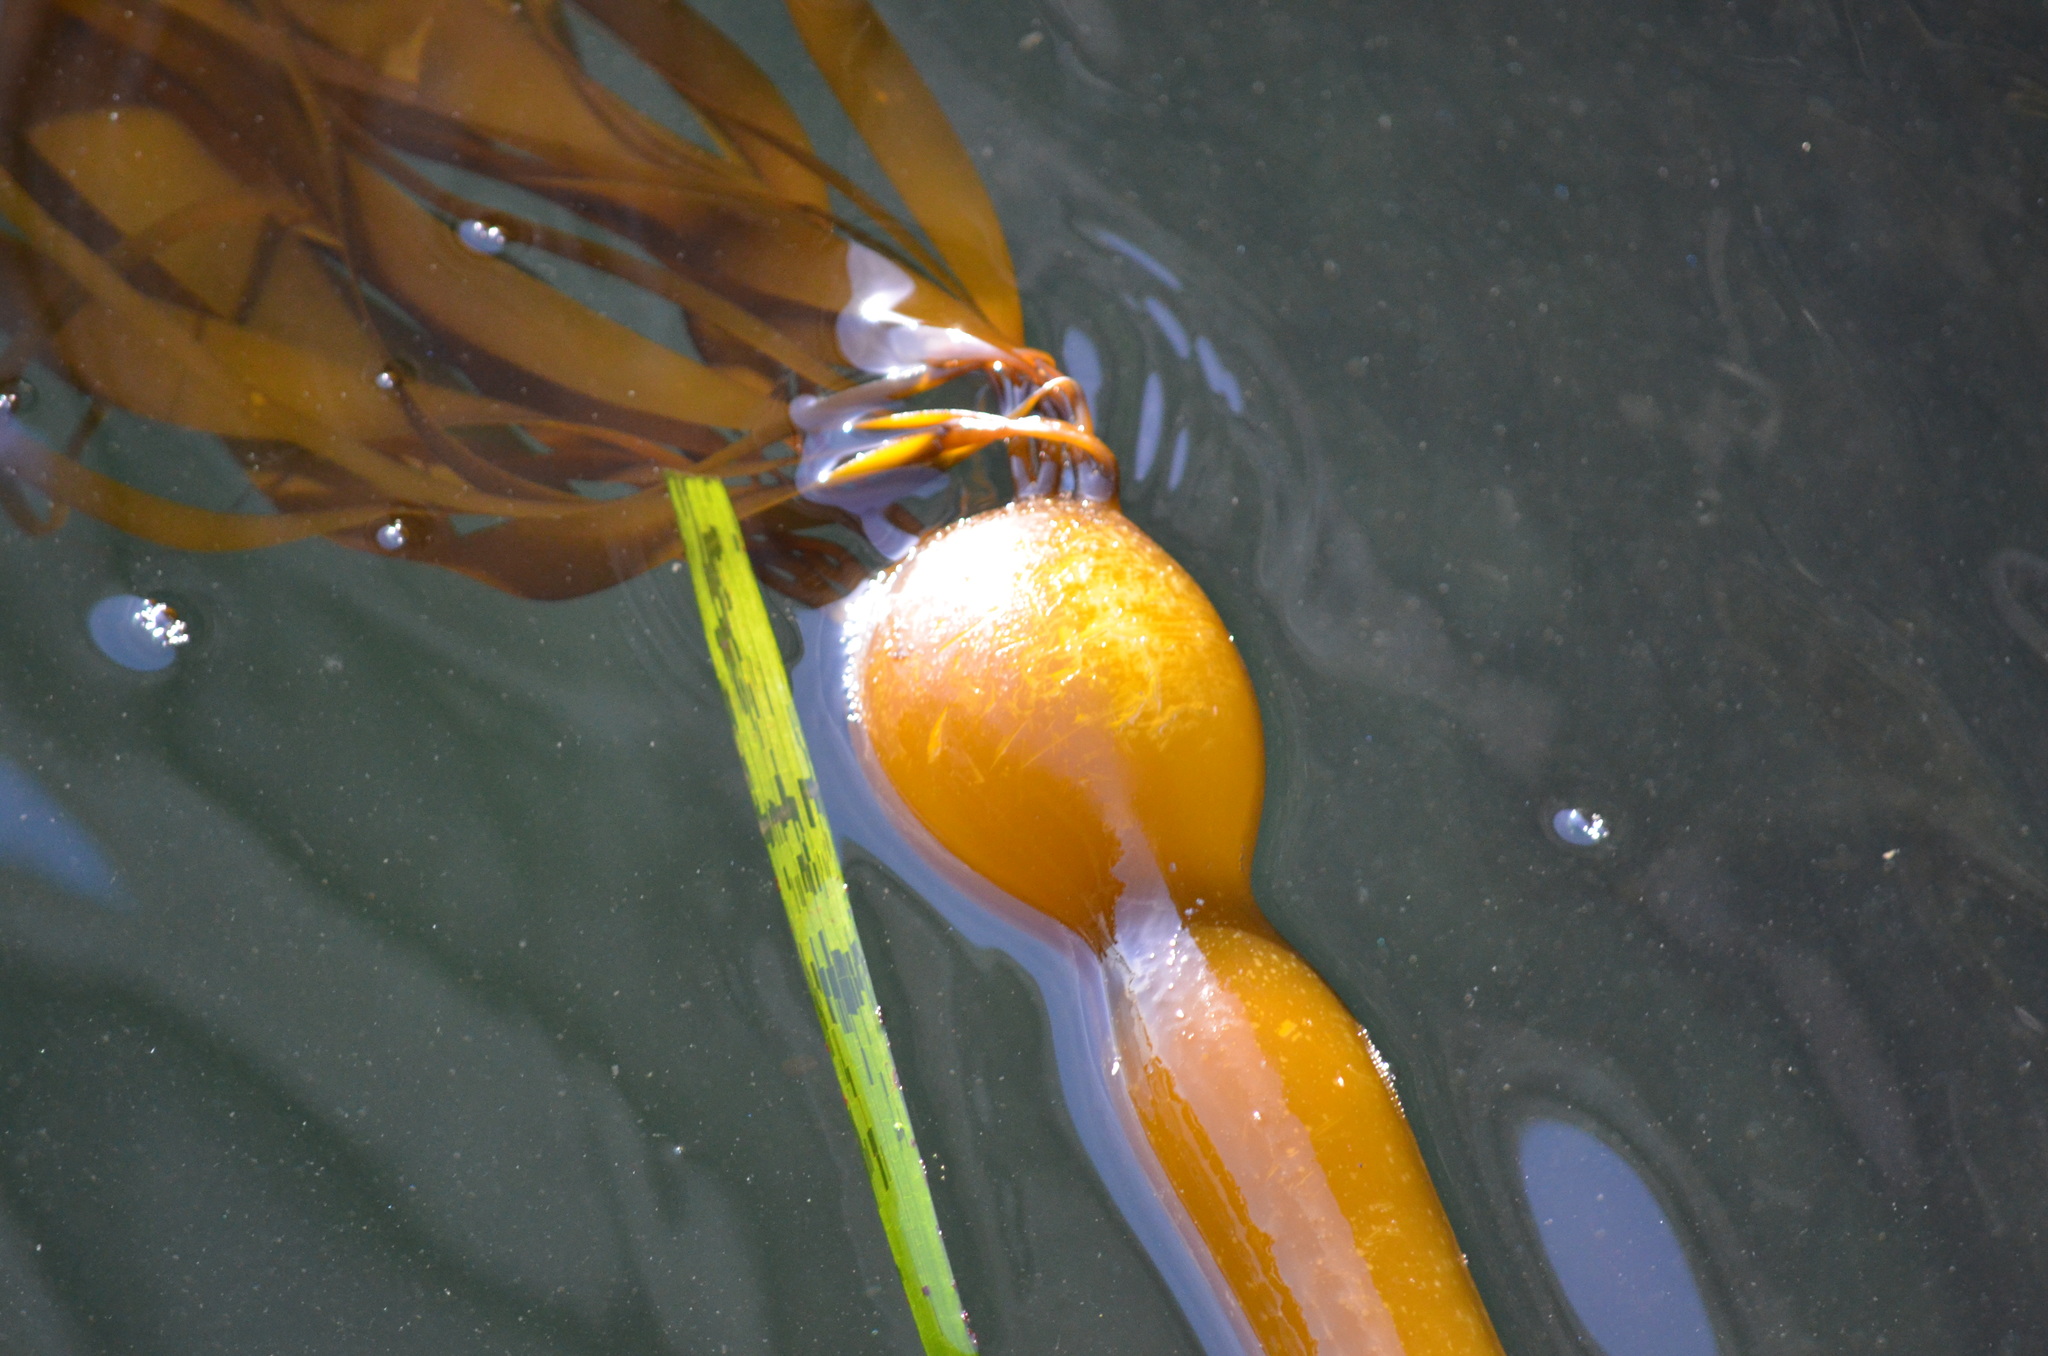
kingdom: Chromista
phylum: Ochrophyta
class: Phaeophyceae
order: Laminariales
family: Laminariaceae
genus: Nereocystis
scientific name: Nereocystis luetkeana
